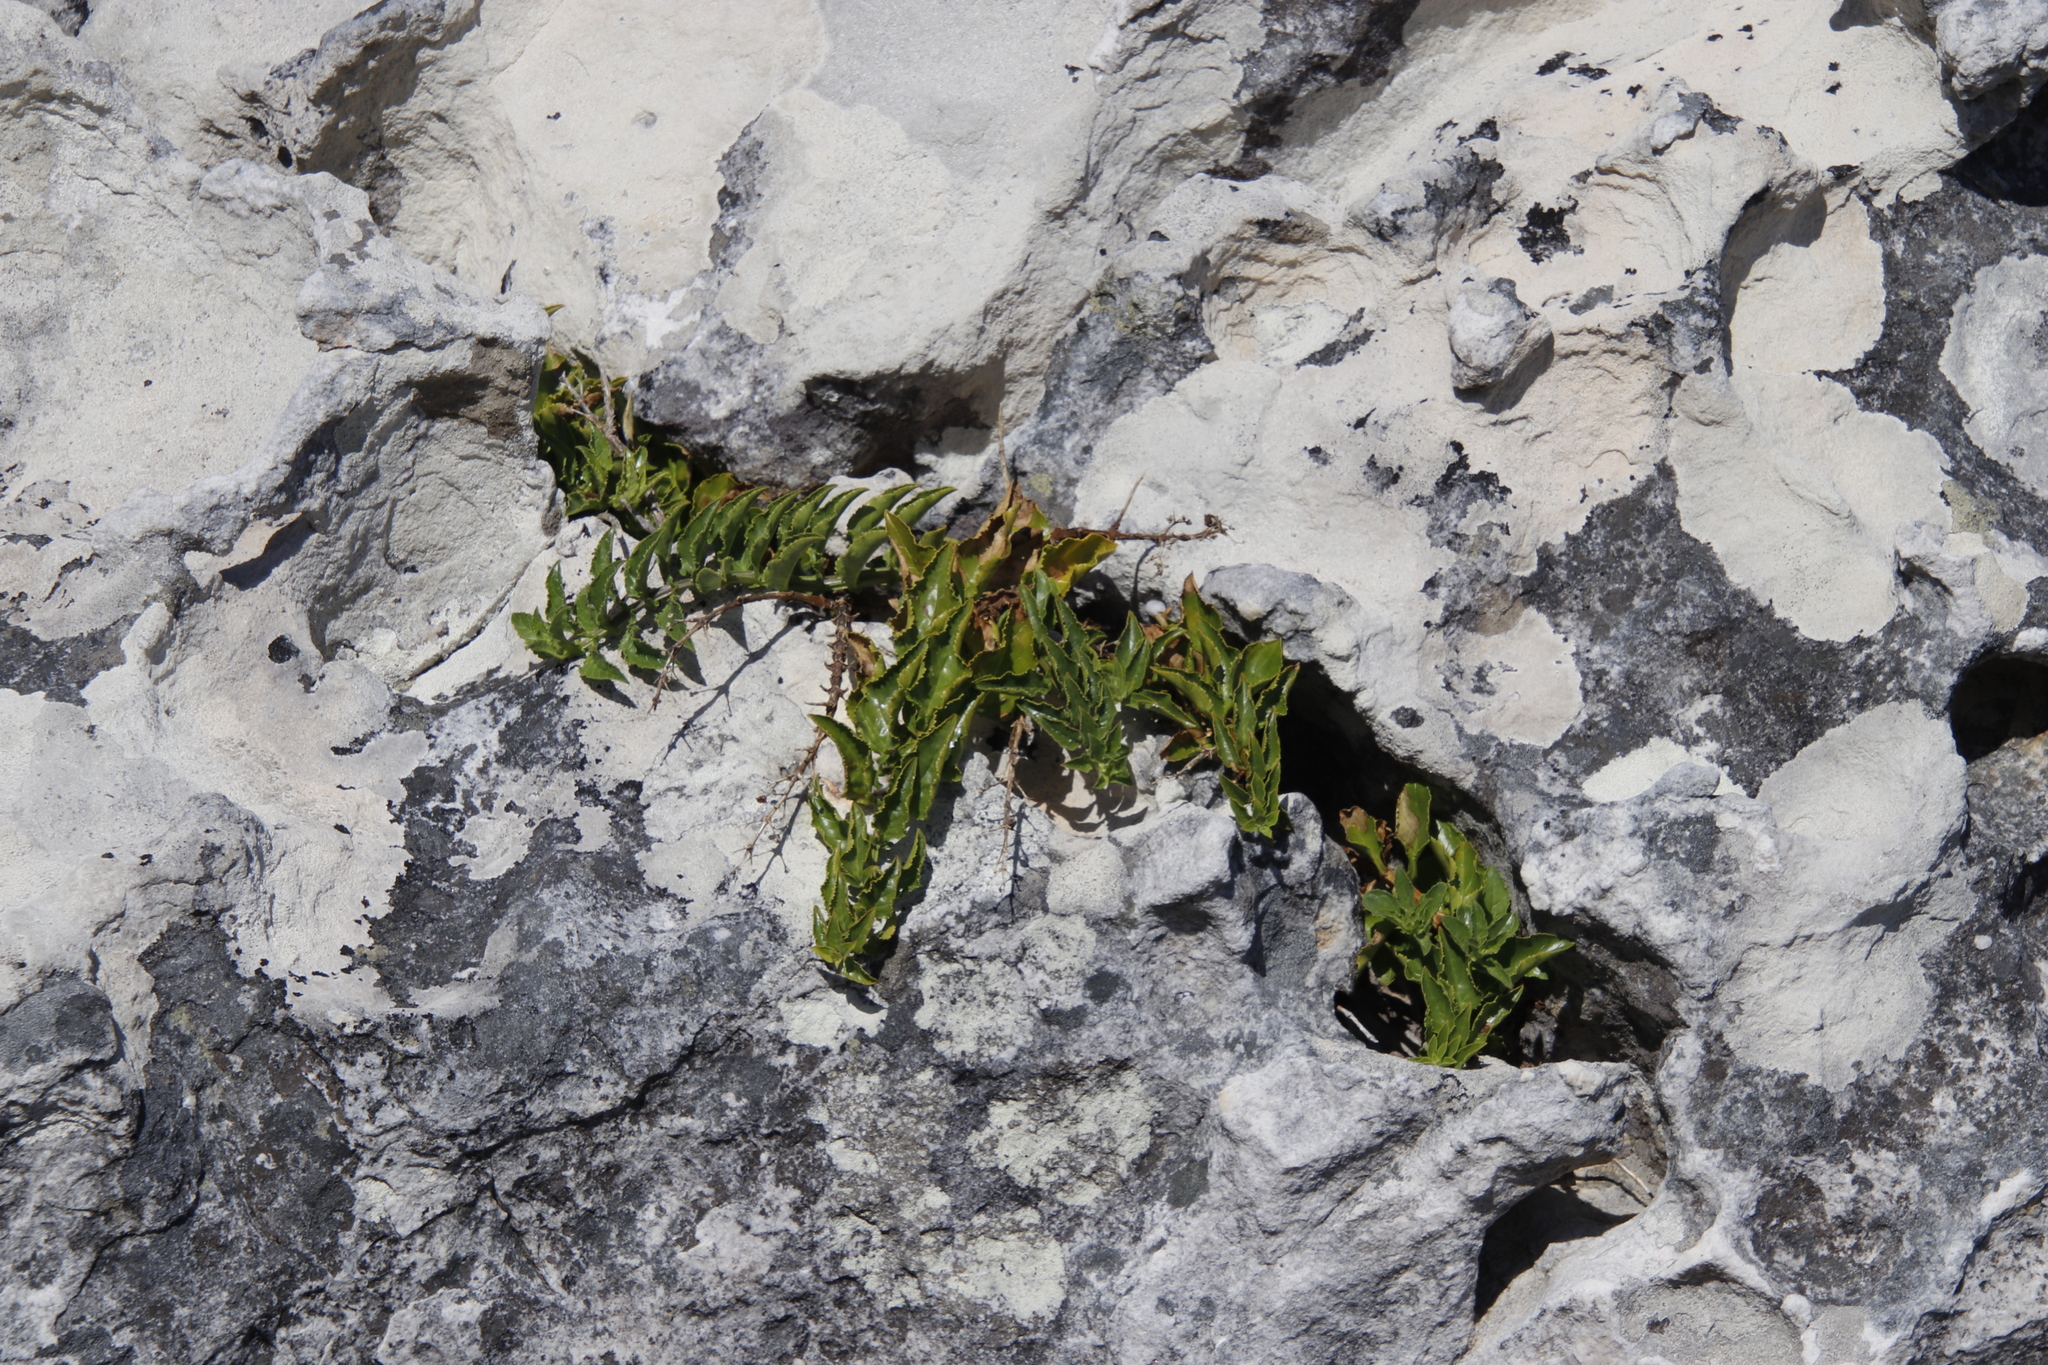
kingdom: Plantae
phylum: Tracheophyta
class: Magnoliopsida
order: Lamiales
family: Scrophulariaceae
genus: Teedia
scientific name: Teedia lucida
